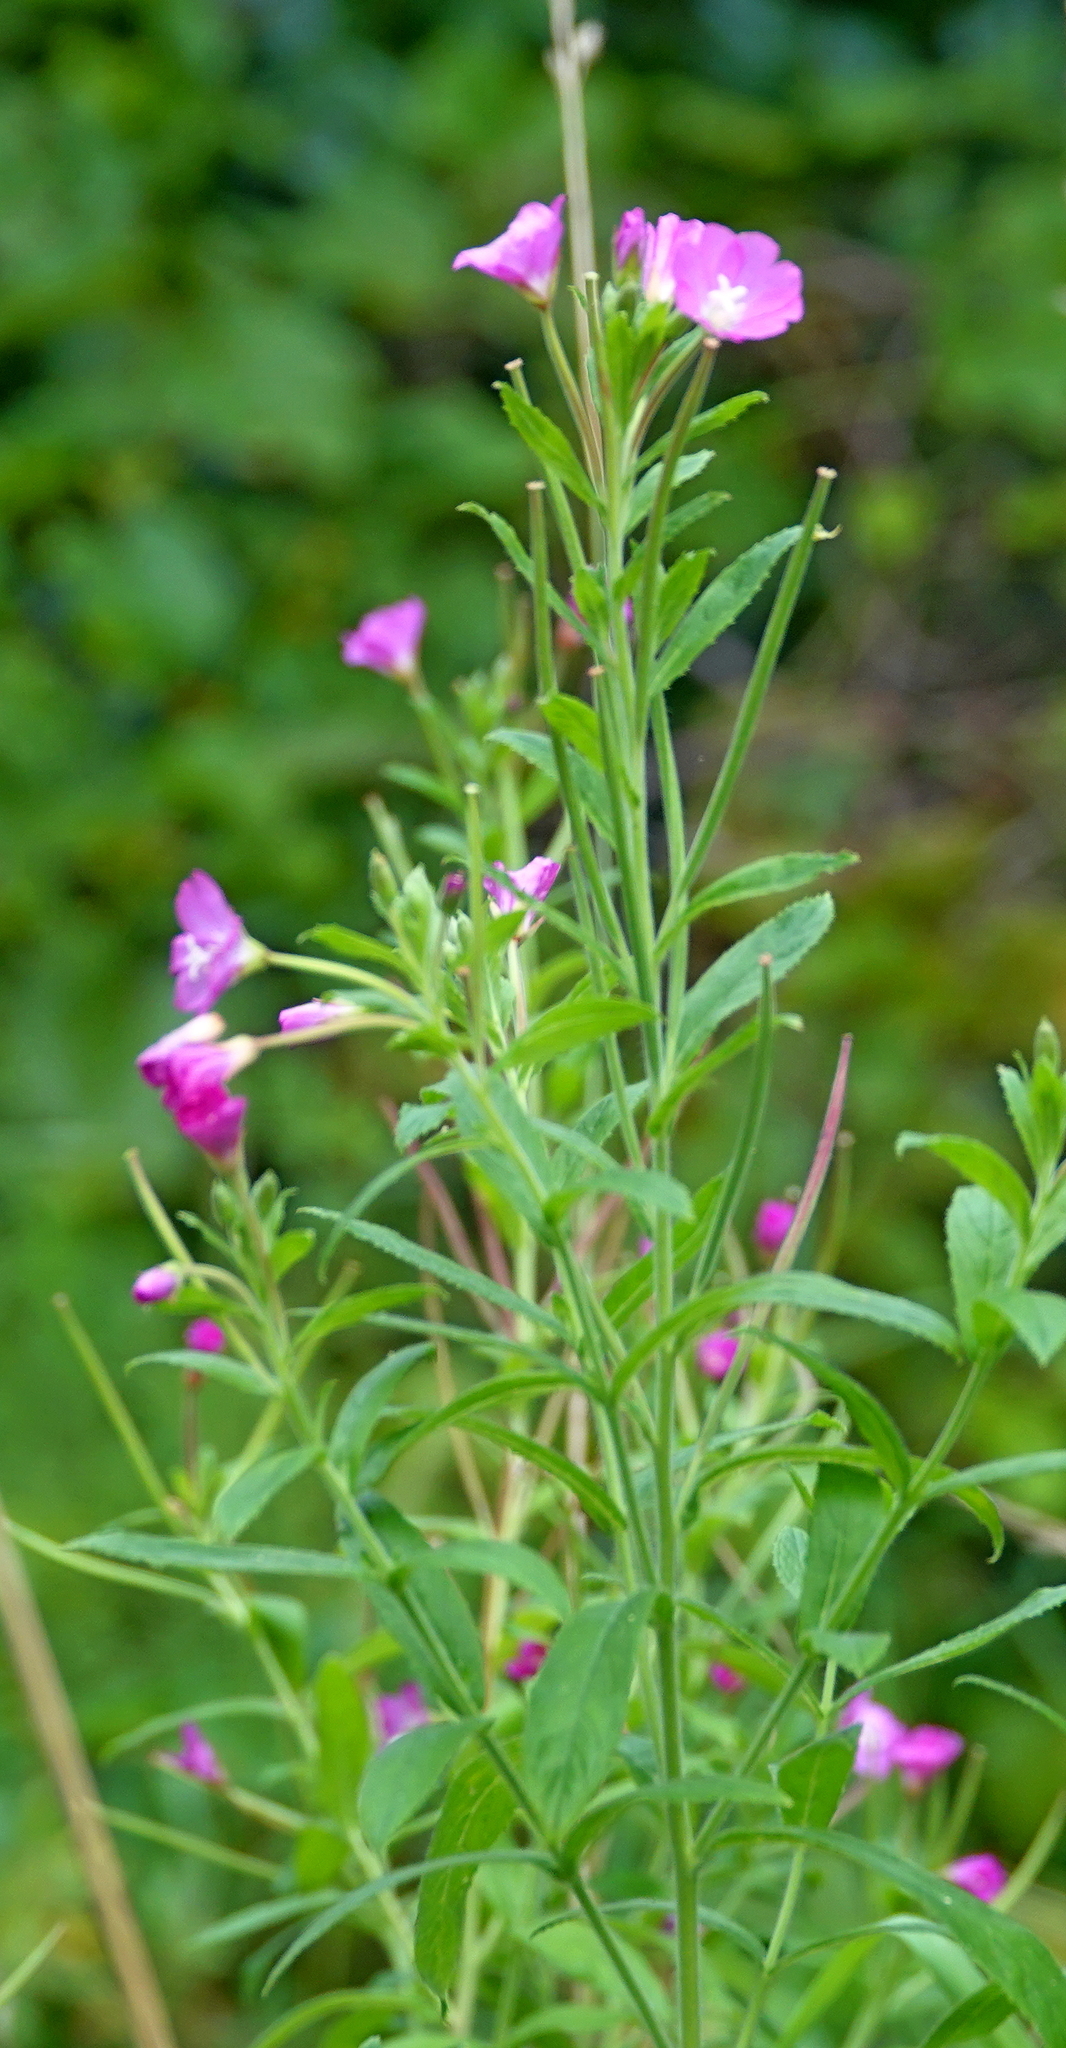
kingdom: Plantae
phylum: Tracheophyta
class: Magnoliopsida
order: Myrtales
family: Onagraceae
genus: Epilobium
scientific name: Epilobium hirsutum
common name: Great willowherb
